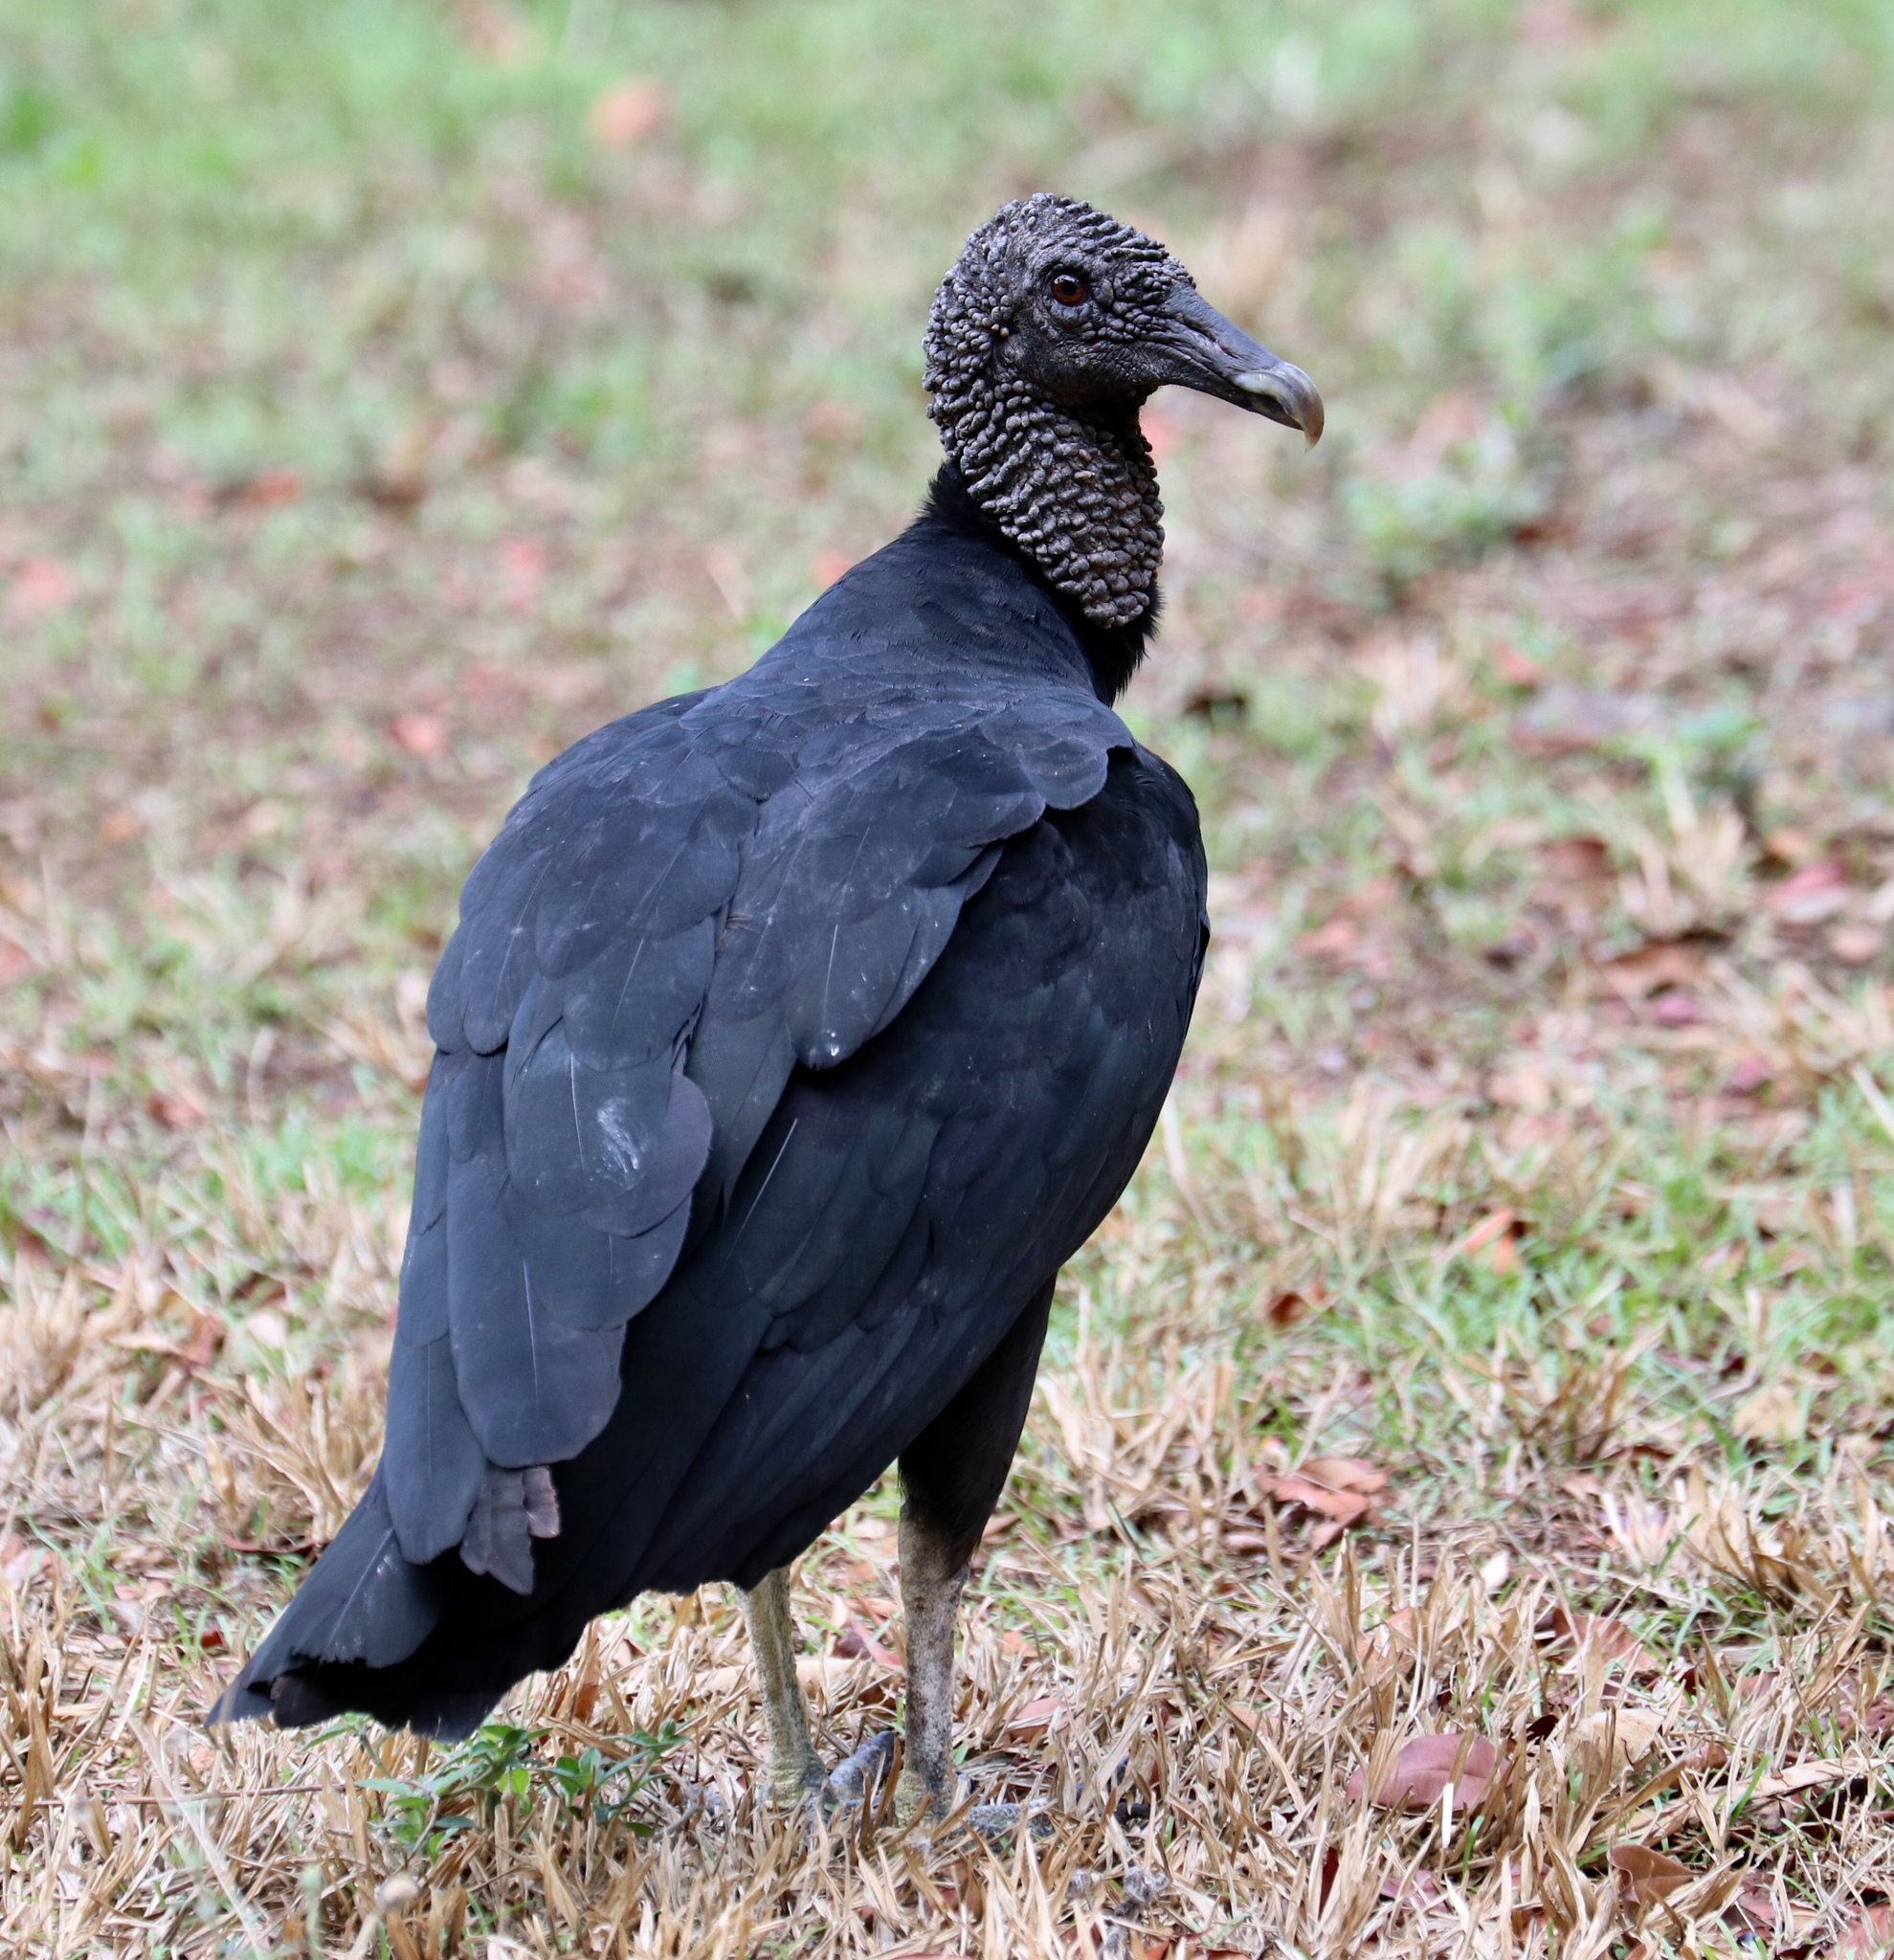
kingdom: Animalia
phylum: Chordata
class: Aves
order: Accipitriformes
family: Cathartidae
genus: Coragyps
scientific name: Coragyps atratus
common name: Black vulture
